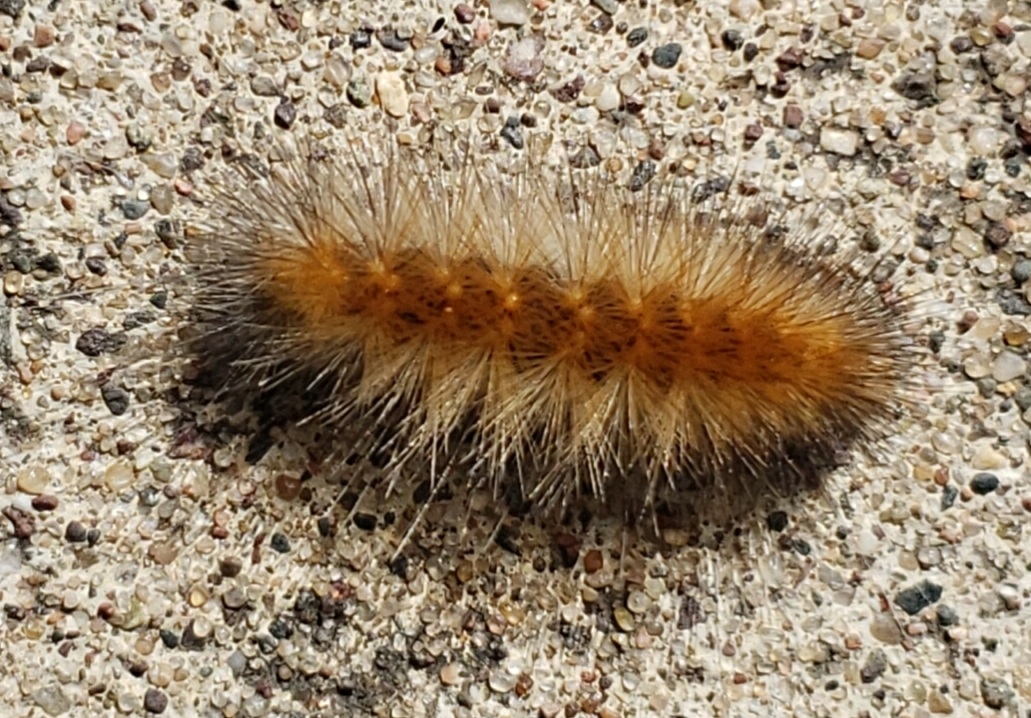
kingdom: Animalia
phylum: Arthropoda
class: Insecta
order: Lepidoptera
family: Erebidae
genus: Spilosoma
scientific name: Spilosoma virginica
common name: Virginia tiger moth
